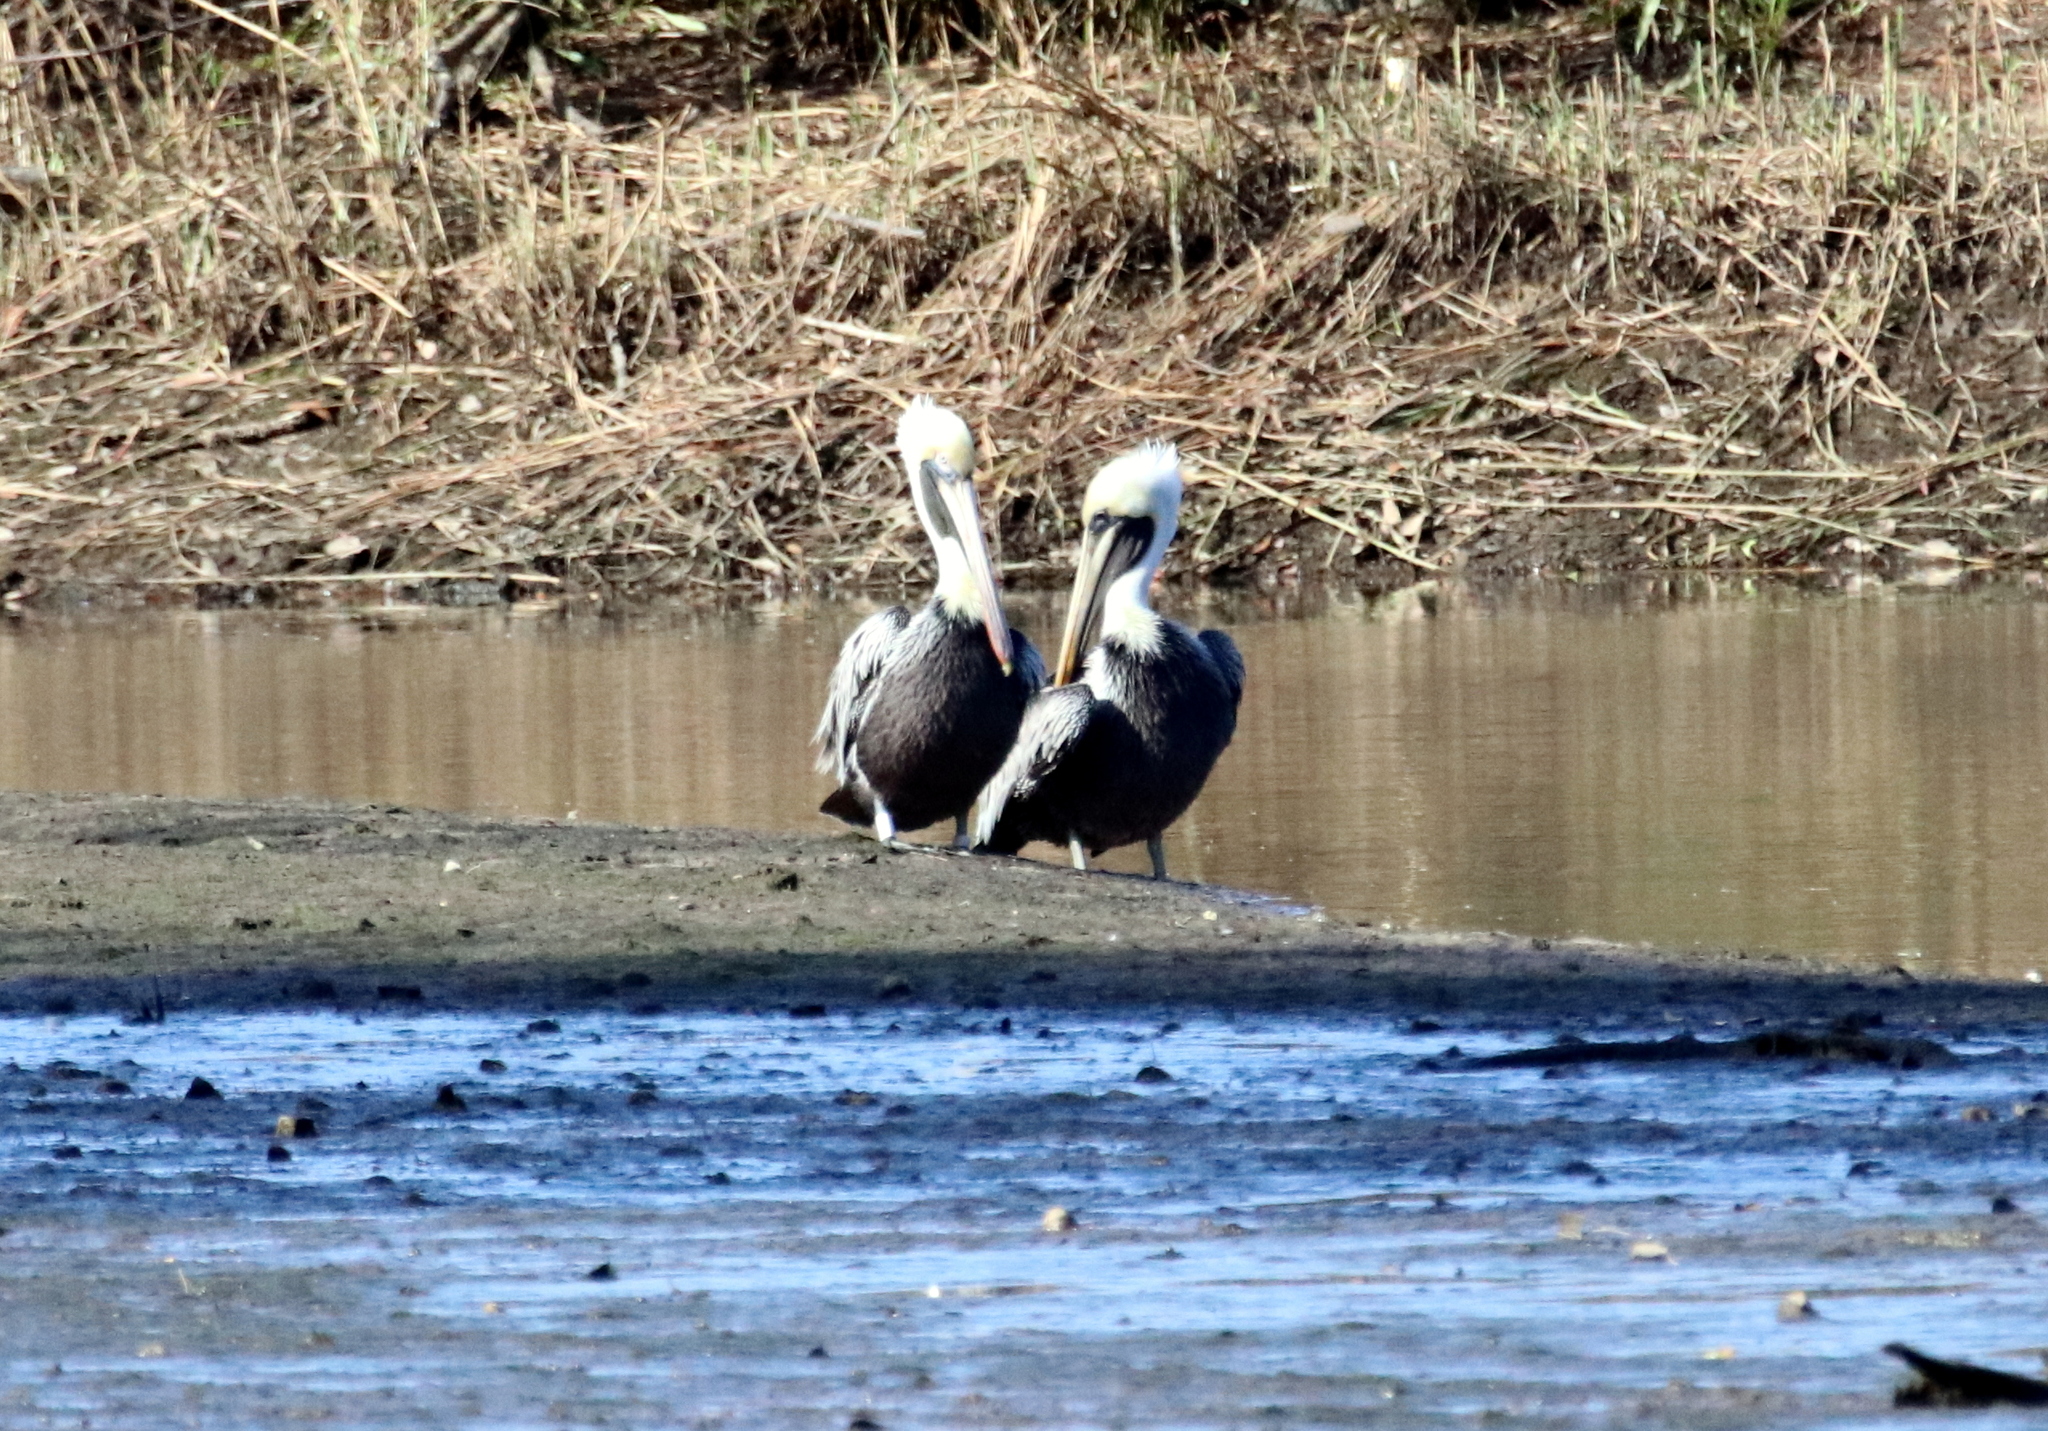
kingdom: Animalia
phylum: Chordata
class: Aves
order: Pelecaniformes
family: Pelecanidae
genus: Pelecanus
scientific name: Pelecanus occidentalis
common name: Brown pelican
